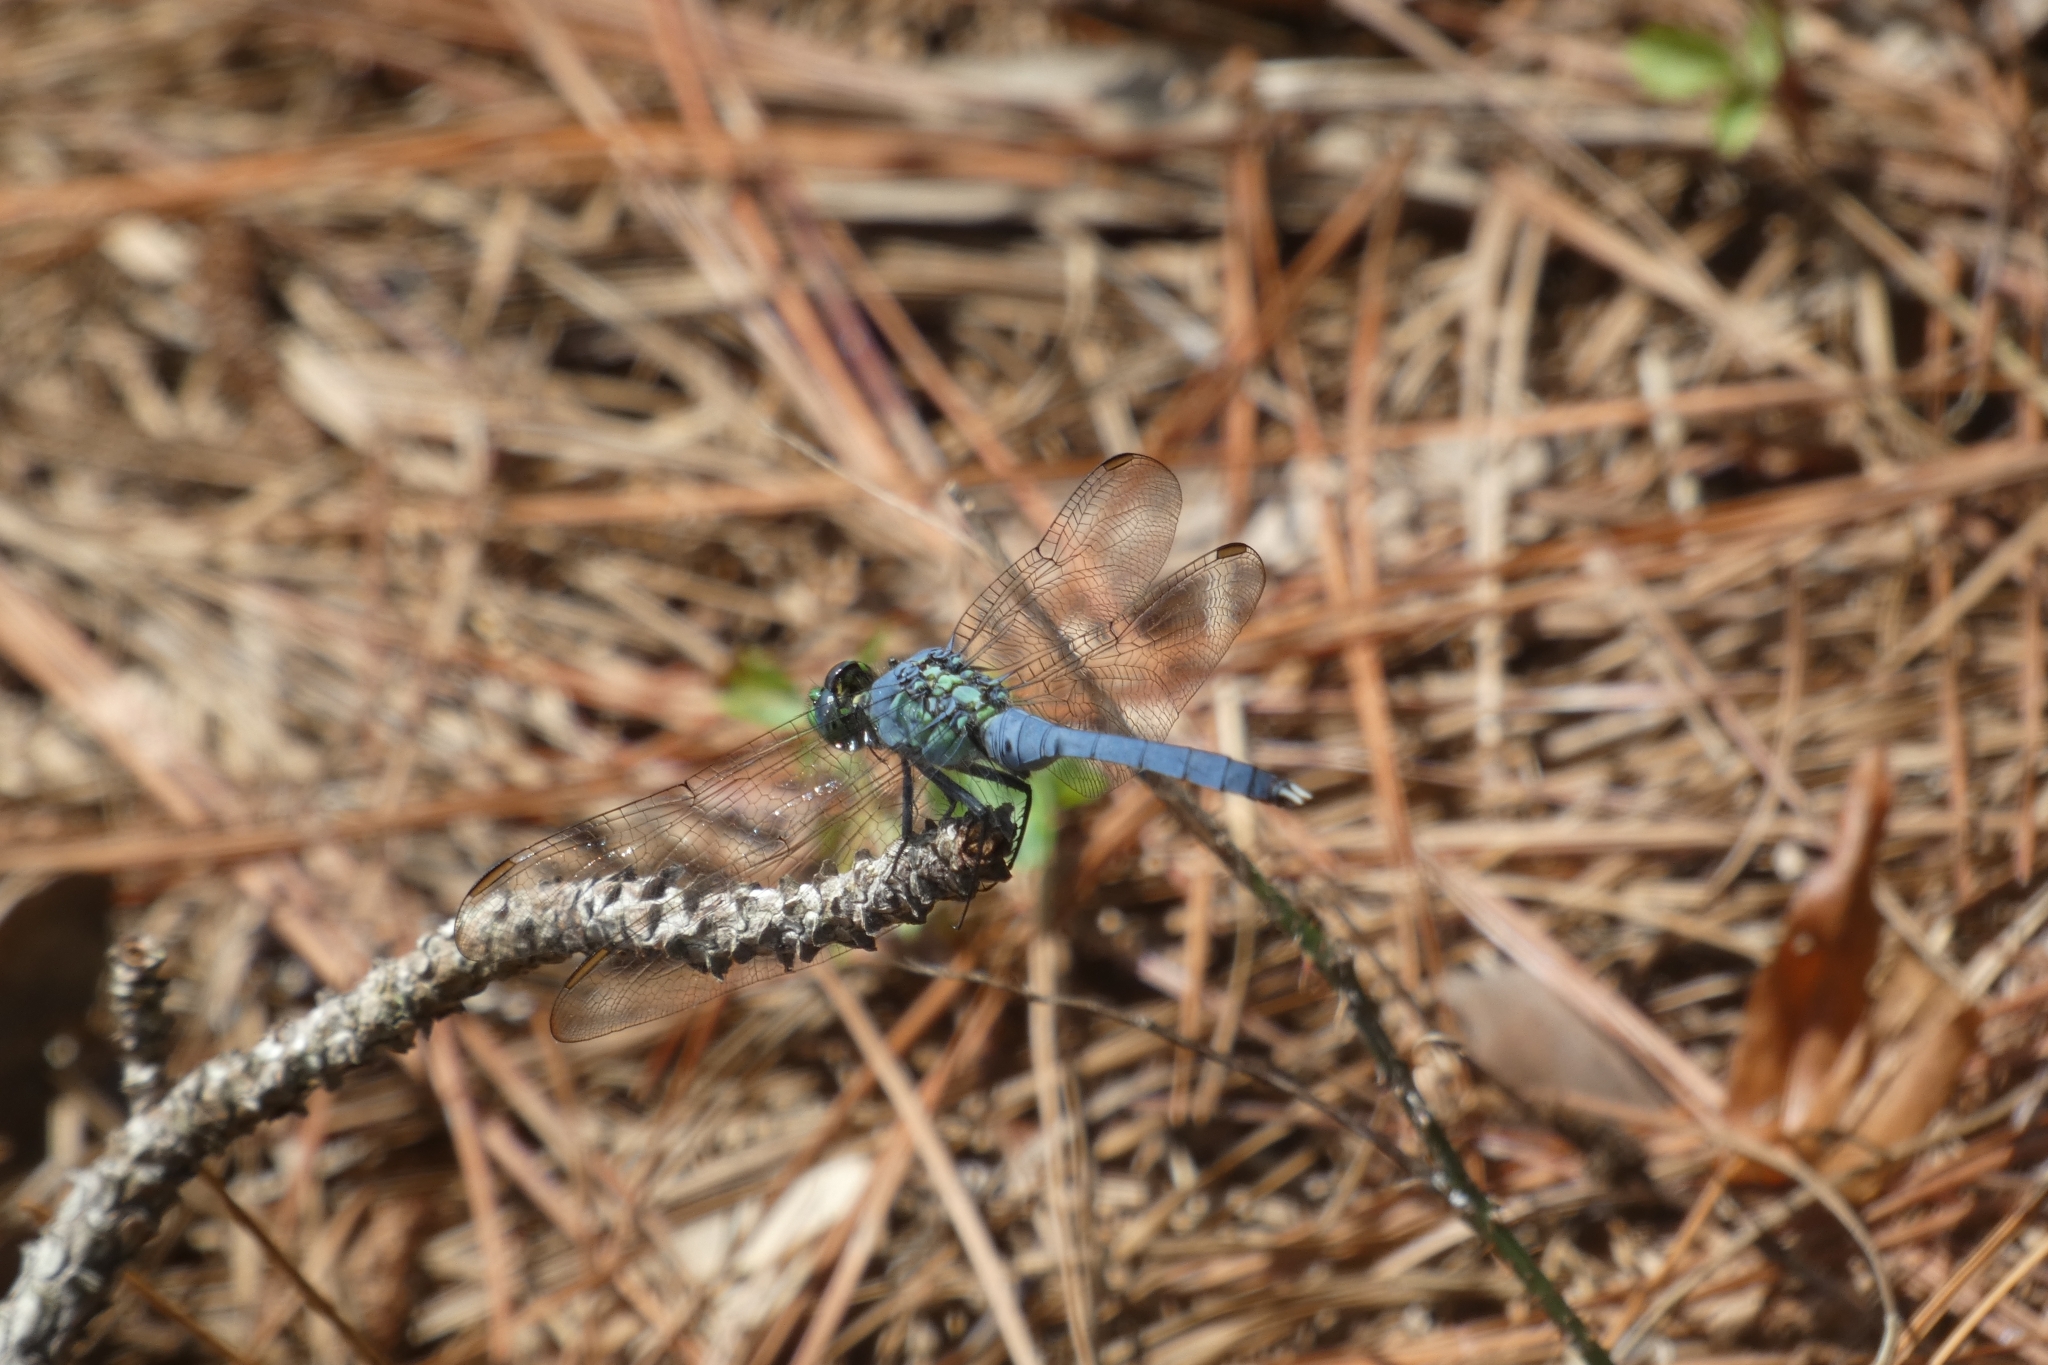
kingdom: Animalia
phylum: Arthropoda
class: Insecta
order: Odonata
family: Libellulidae
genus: Erythemis
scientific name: Erythemis simplicicollis
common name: Eastern pondhawk
